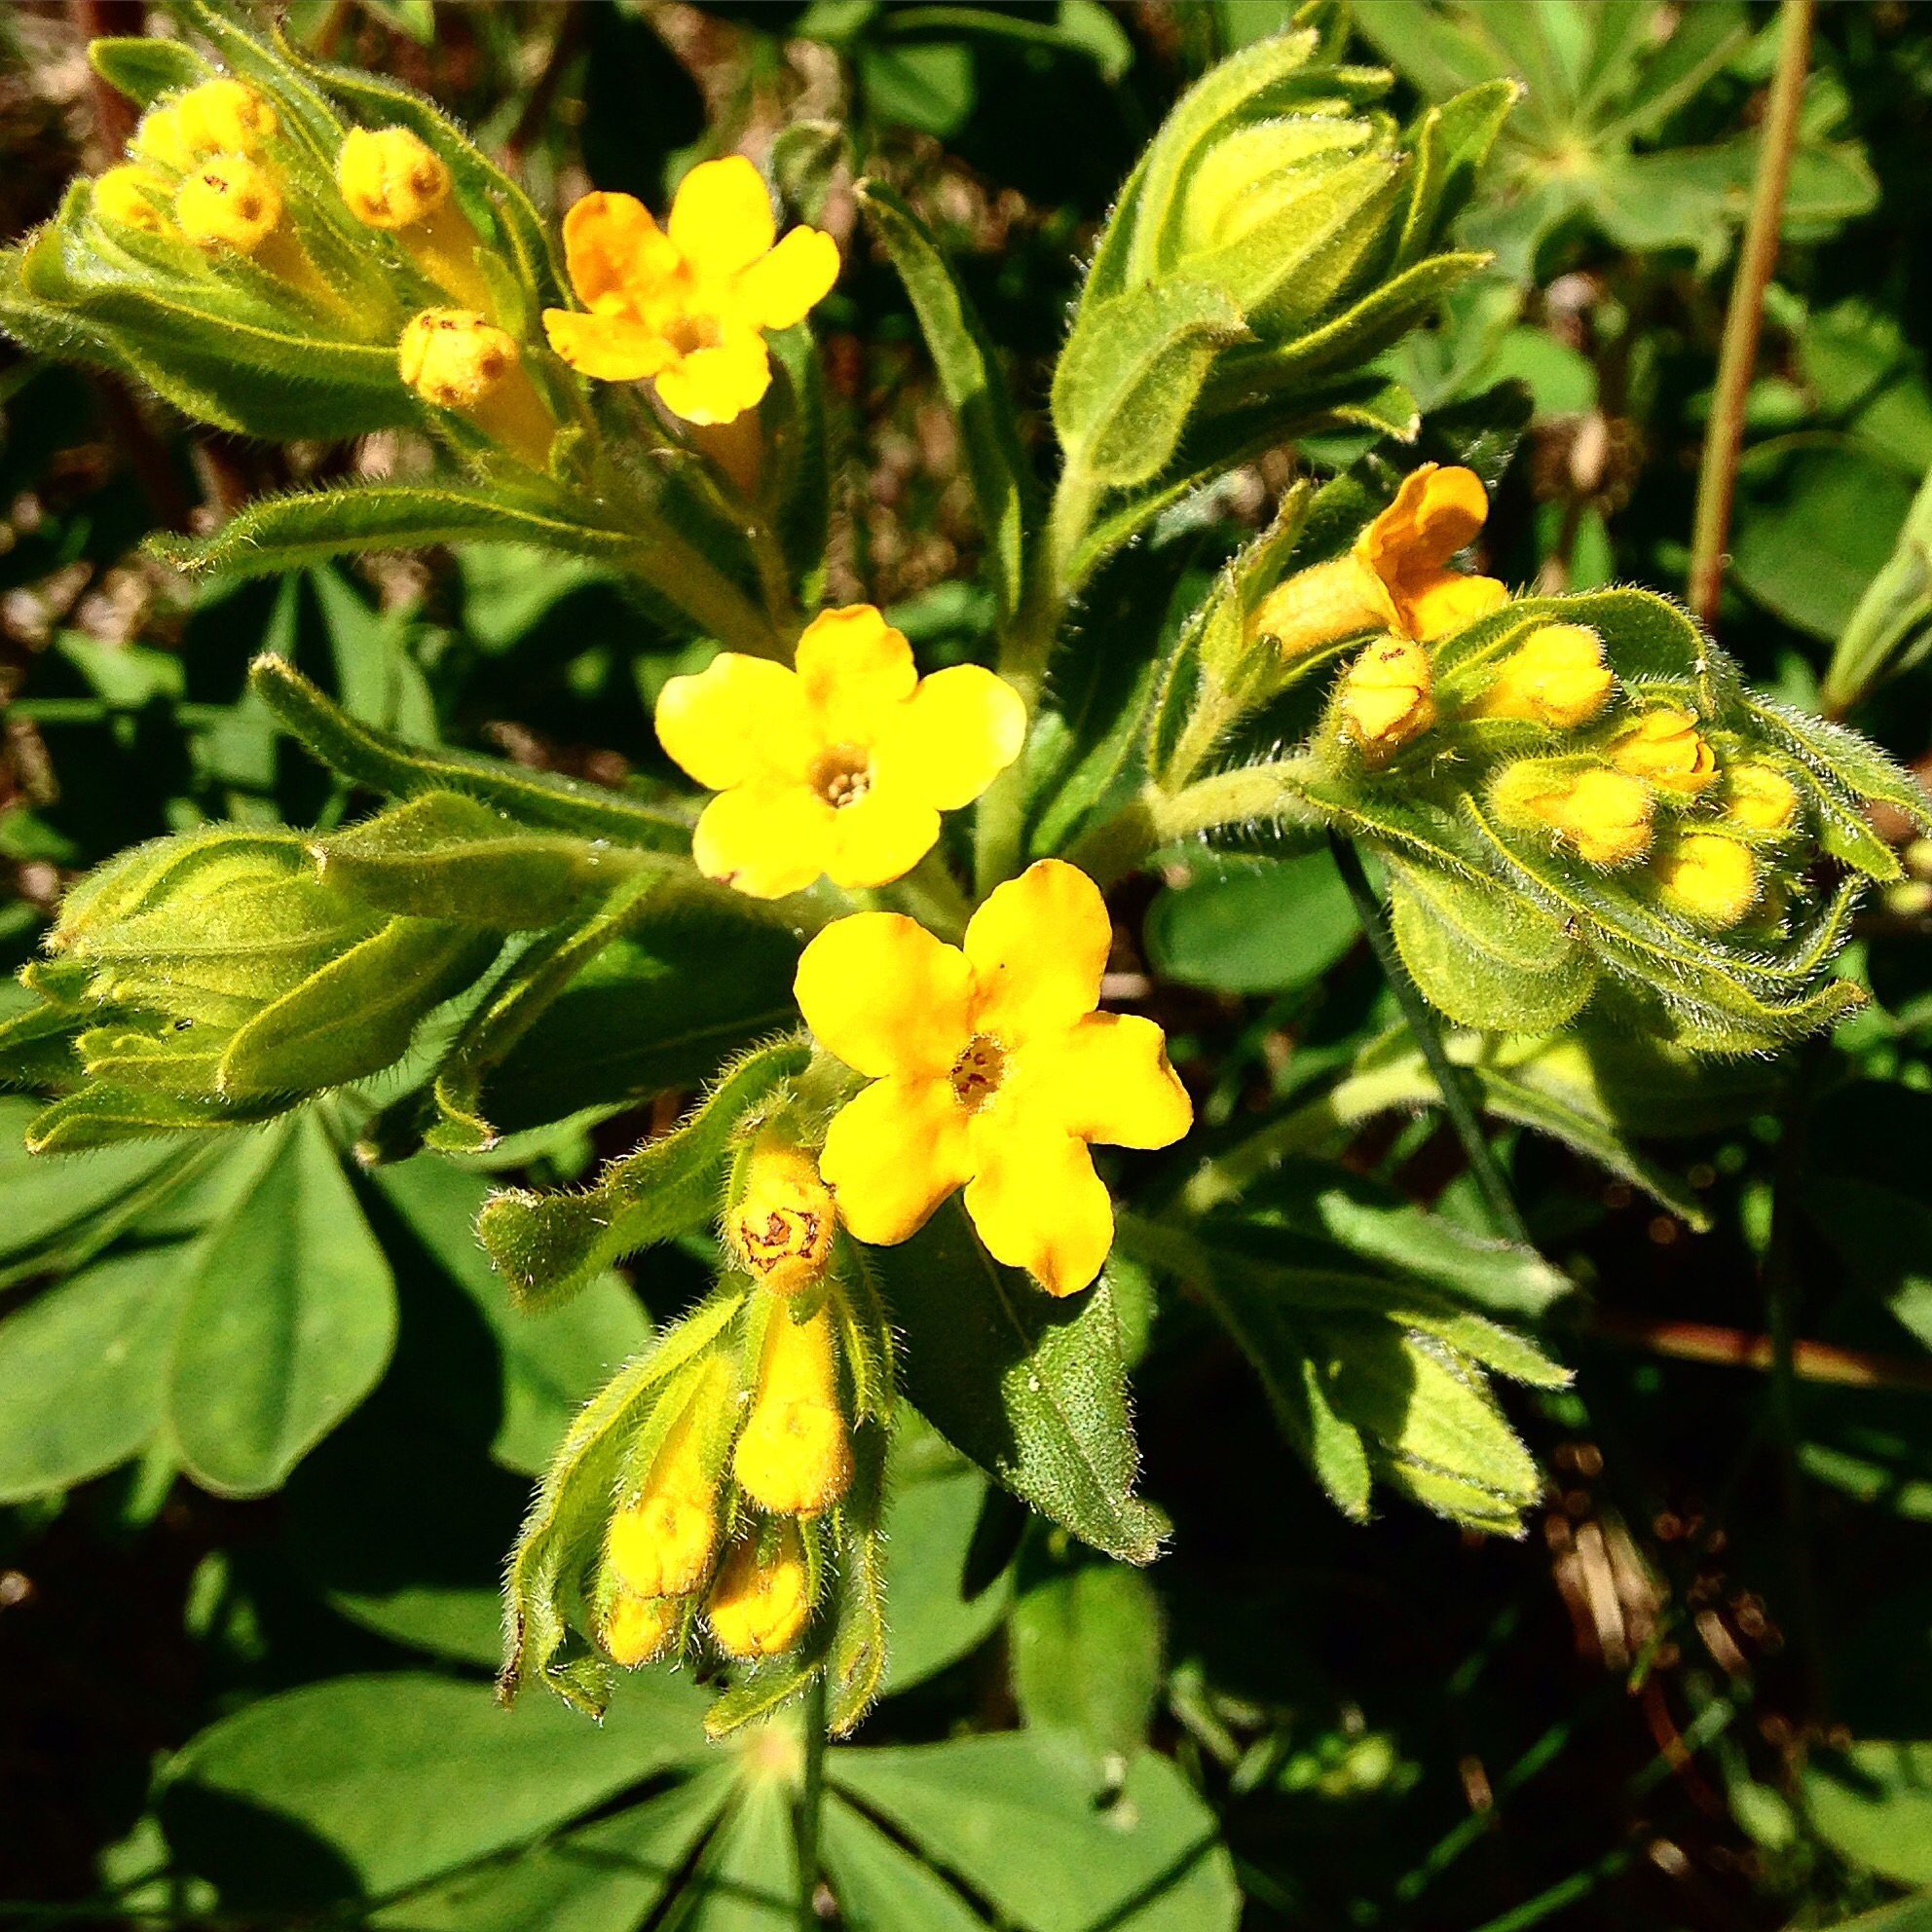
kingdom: Plantae
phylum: Tracheophyta
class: Magnoliopsida
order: Boraginales
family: Boraginaceae
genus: Lithospermum
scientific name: Lithospermum caroliniense
